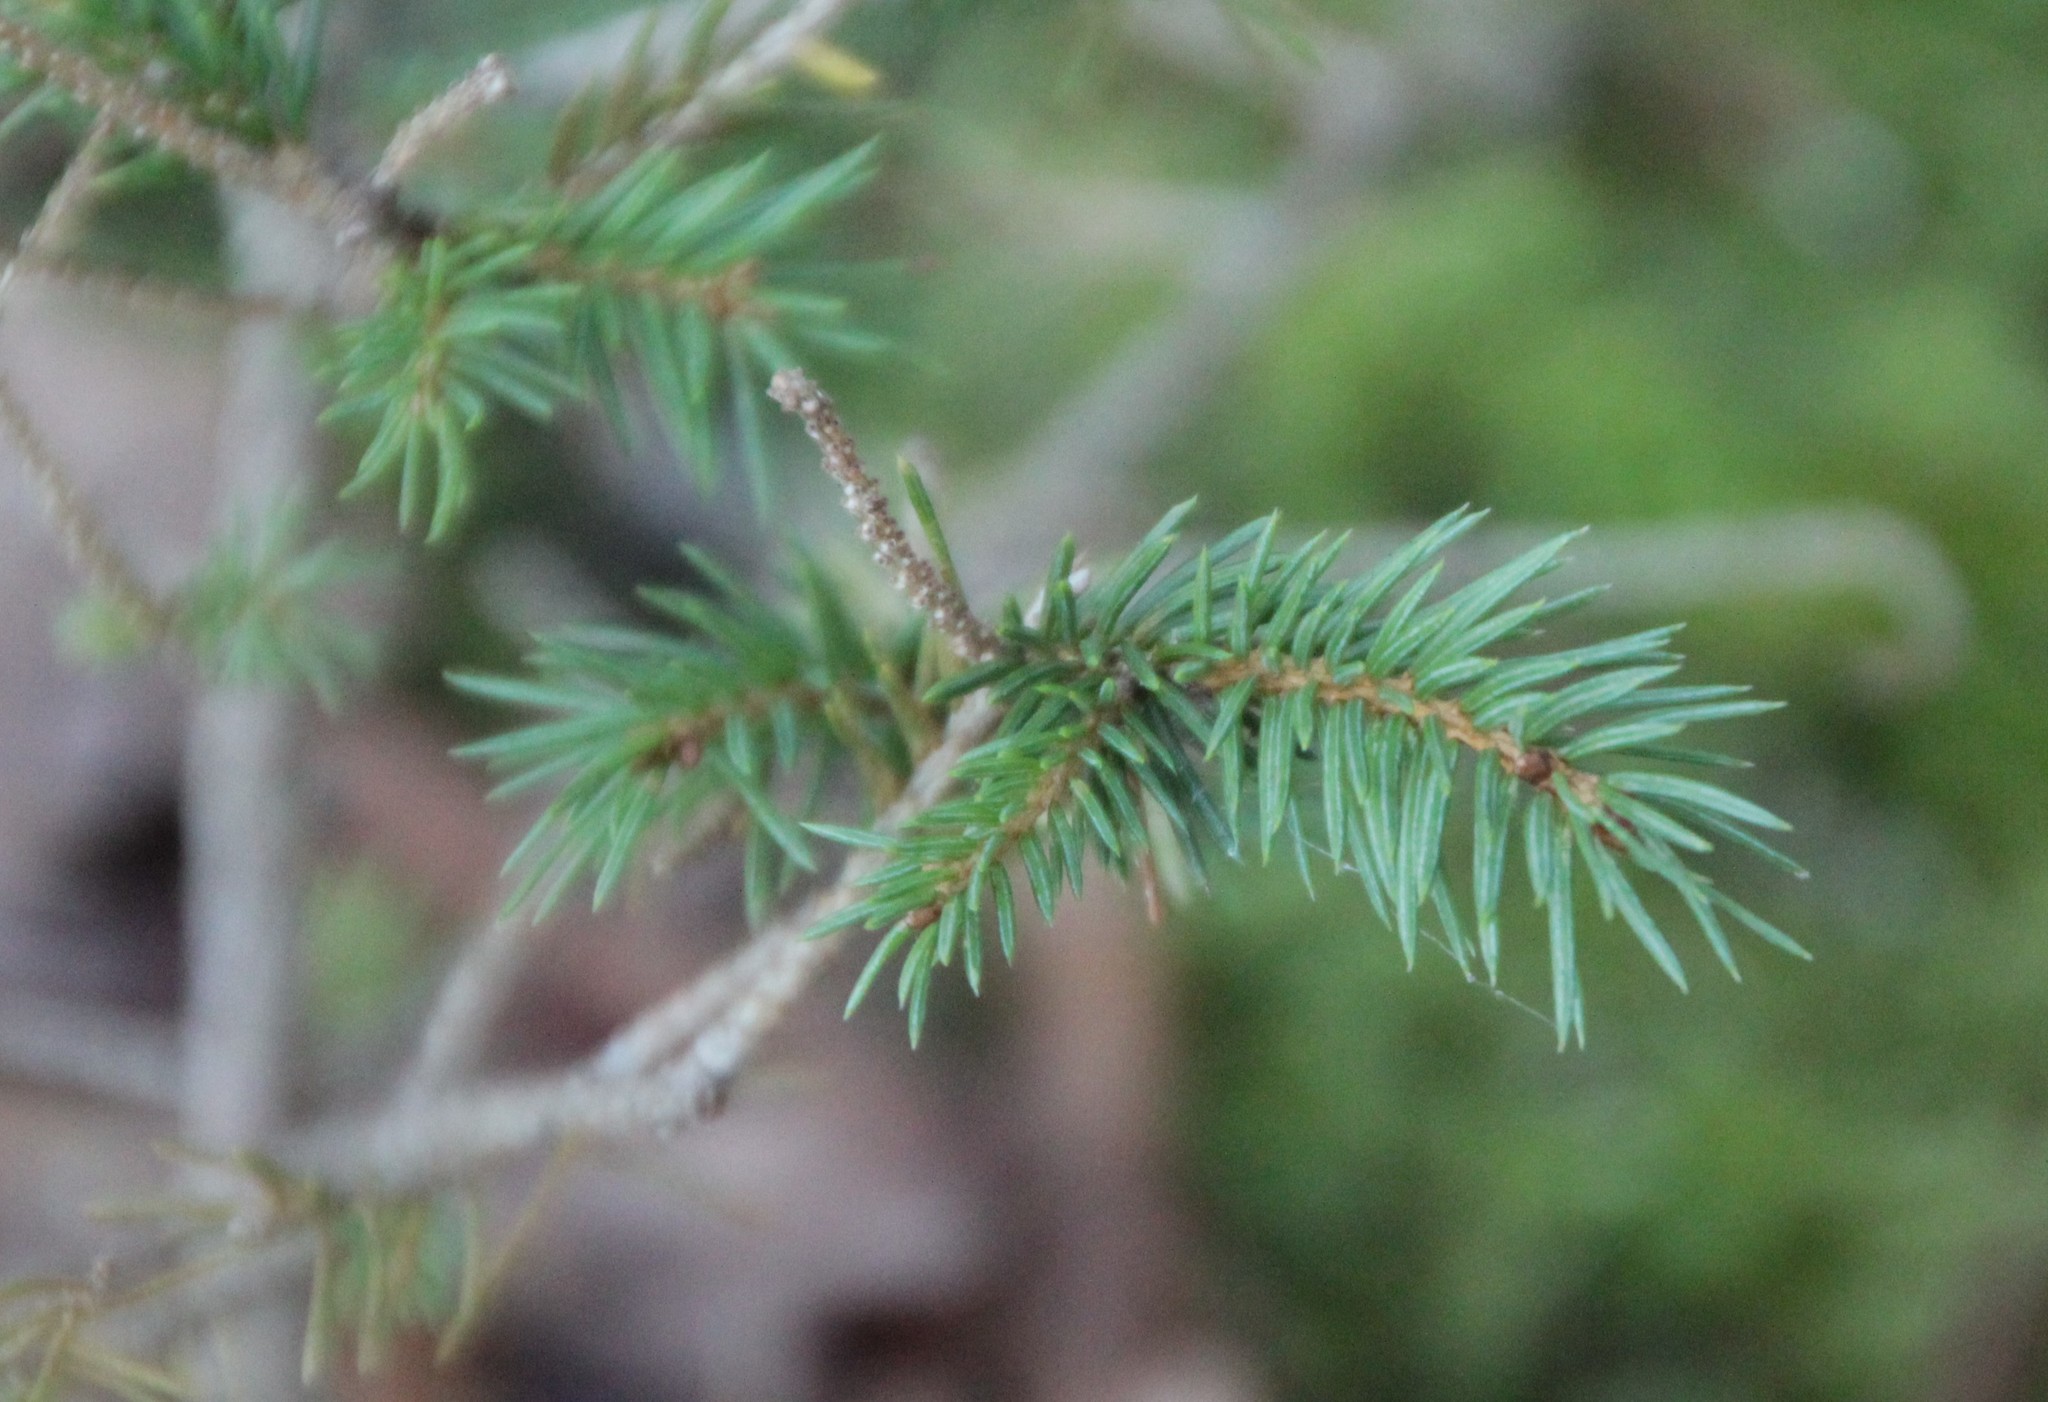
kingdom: Plantae
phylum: Tracheophyta
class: Pinopsida
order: Pinales
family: Pinaceae
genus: Picea
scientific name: Picea abies
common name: Norway spruce
